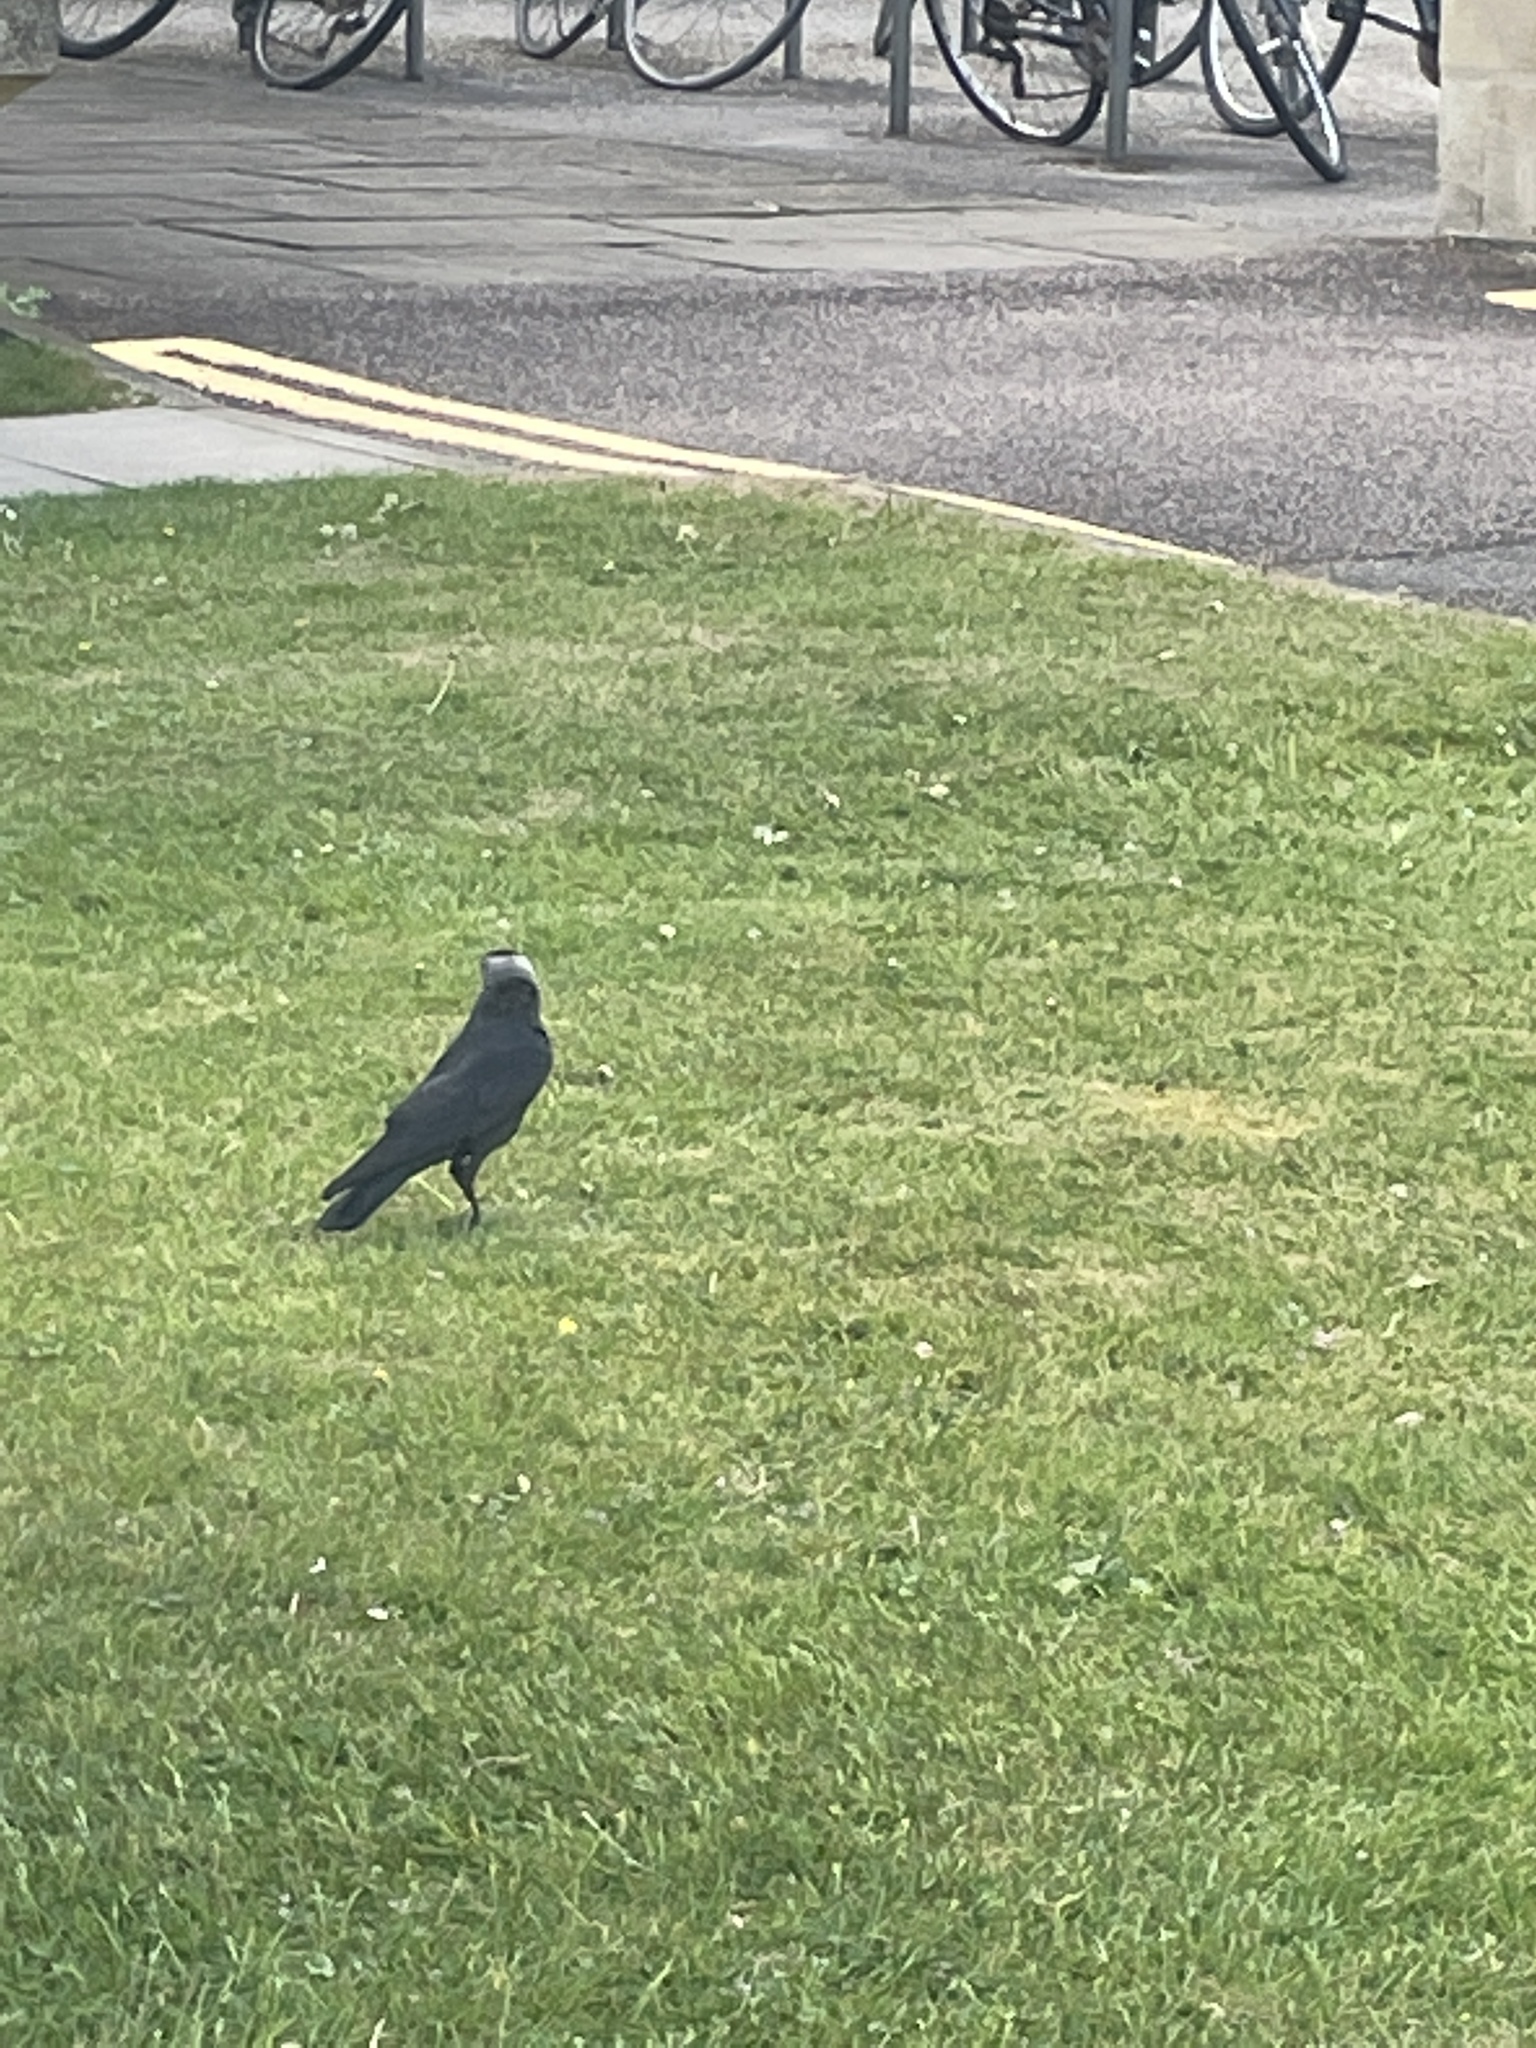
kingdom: Animalia
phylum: Chordata
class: Aves
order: Passeriformes
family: Corvidae
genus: Coloeus
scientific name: Coloeus monedula
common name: Western jackdaw
